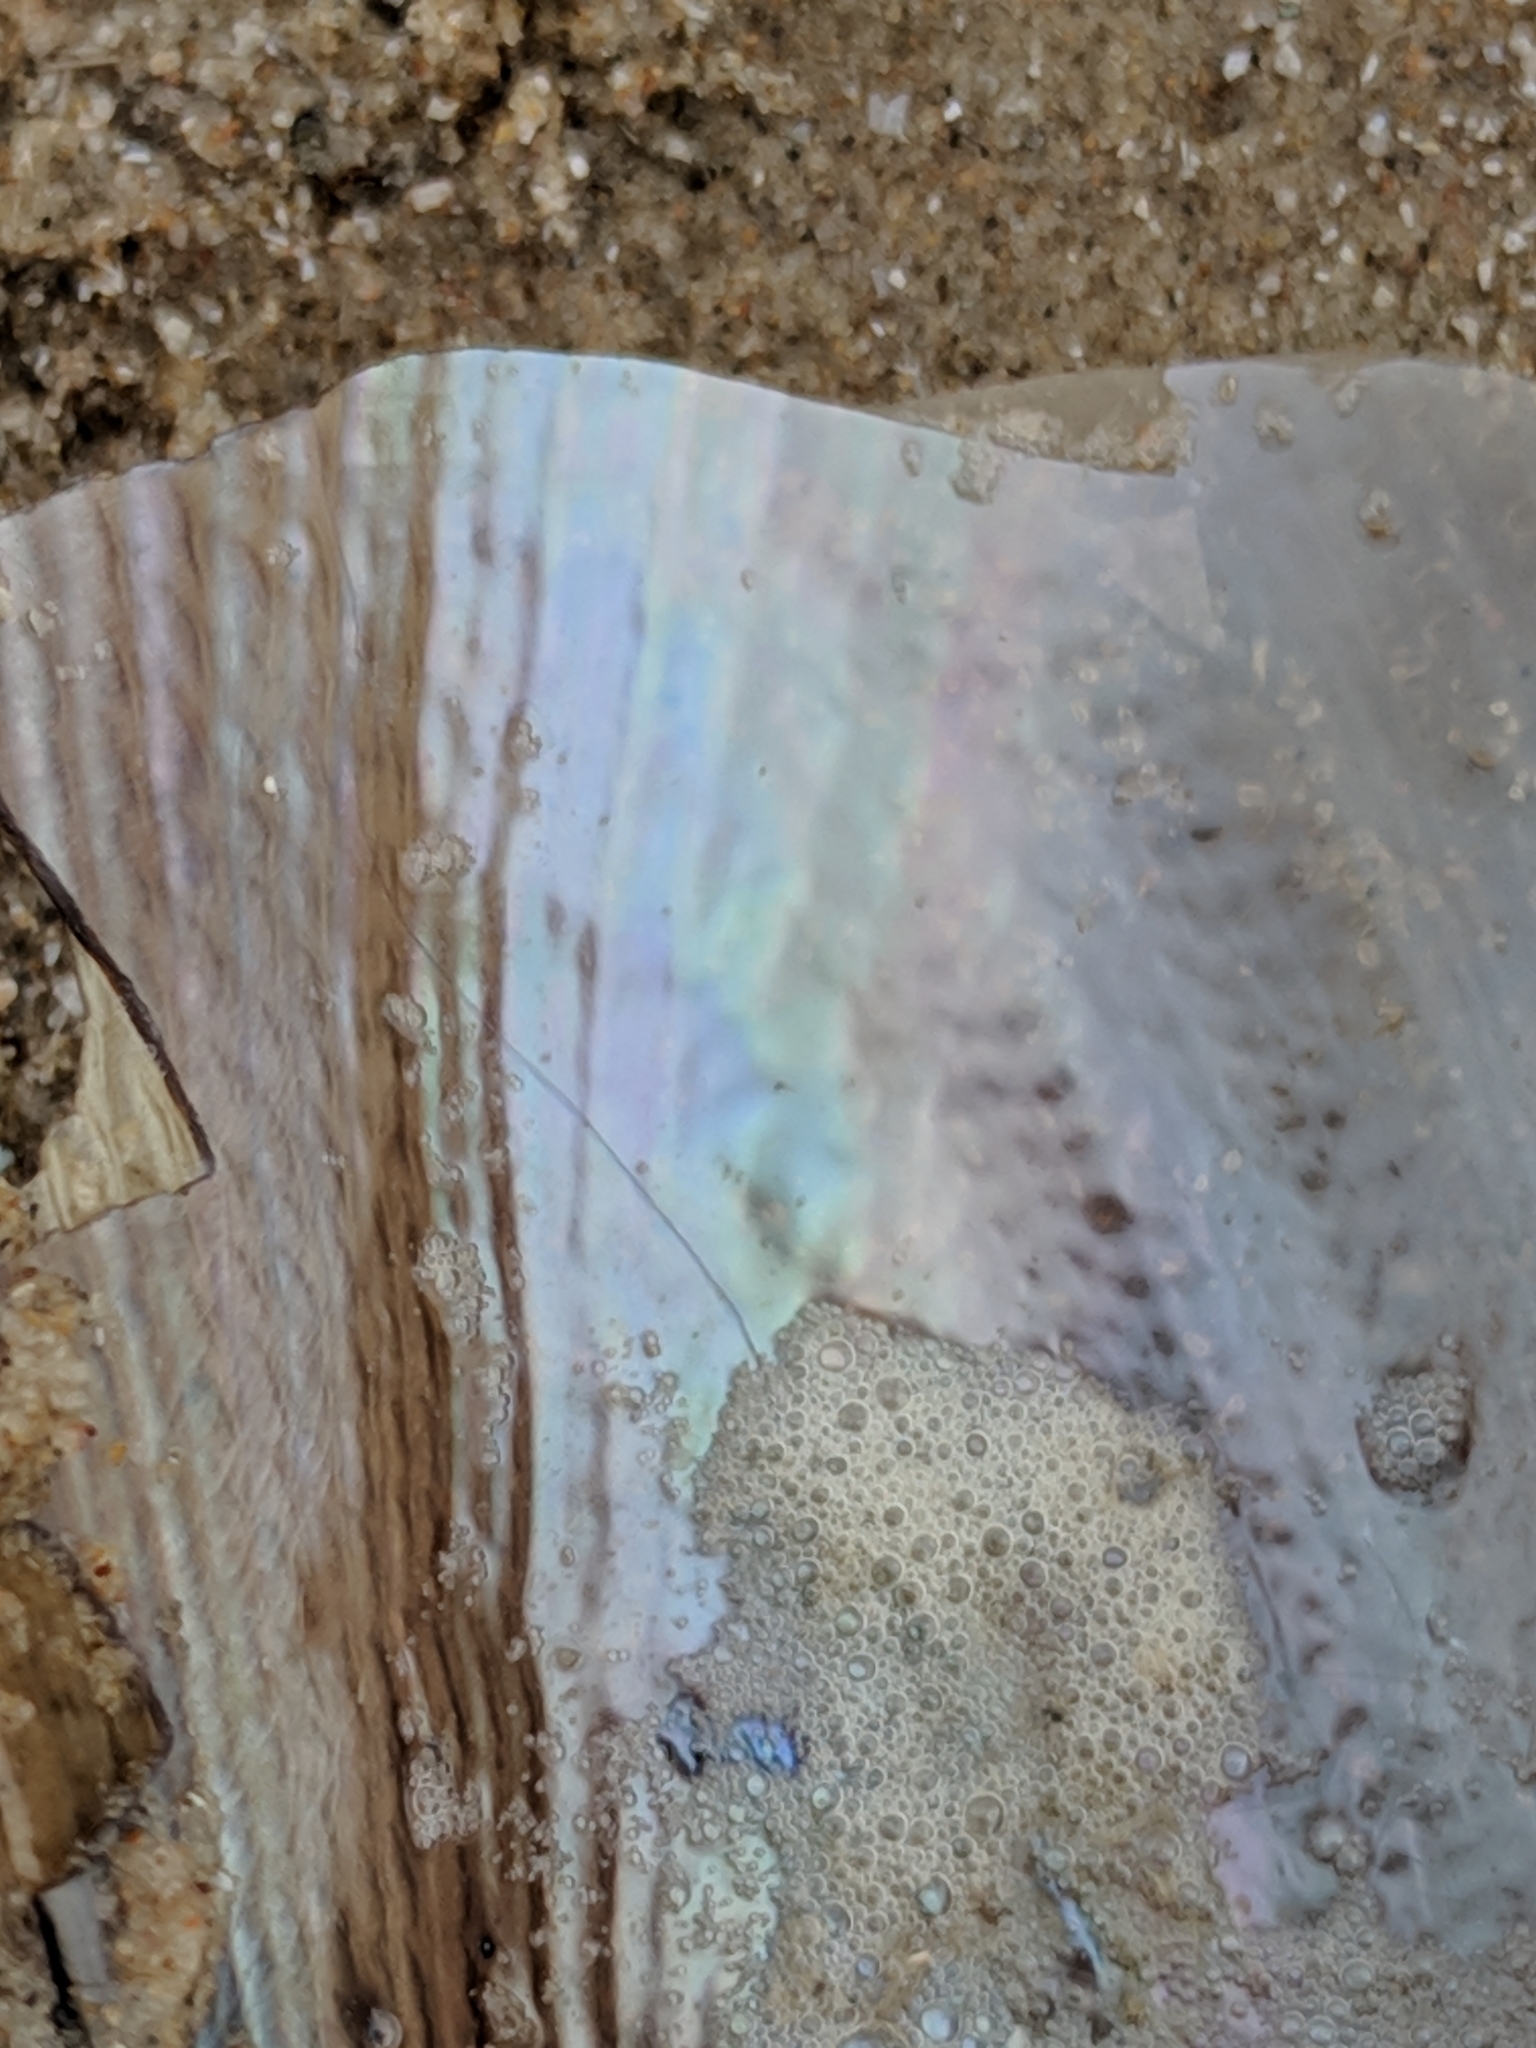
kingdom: Animalia
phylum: Mollusca
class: Bivalvia
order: Ostreida
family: Pinnidae
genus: Atrina
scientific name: Atrina serrata
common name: Saw-toothed penshell
